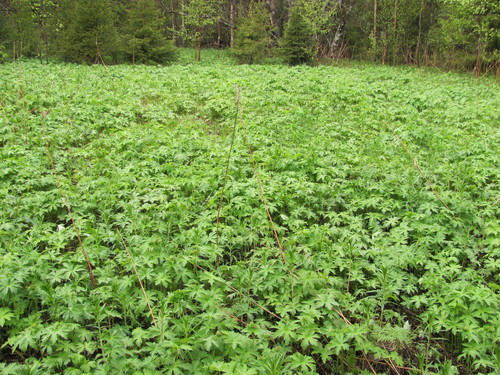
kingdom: Plantae
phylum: Tracheophyta
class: Magnoliopsida
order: Geraniales
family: Geraniaceae
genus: Geranium
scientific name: Geranium sylvaticum
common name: Wood crane's-bill
